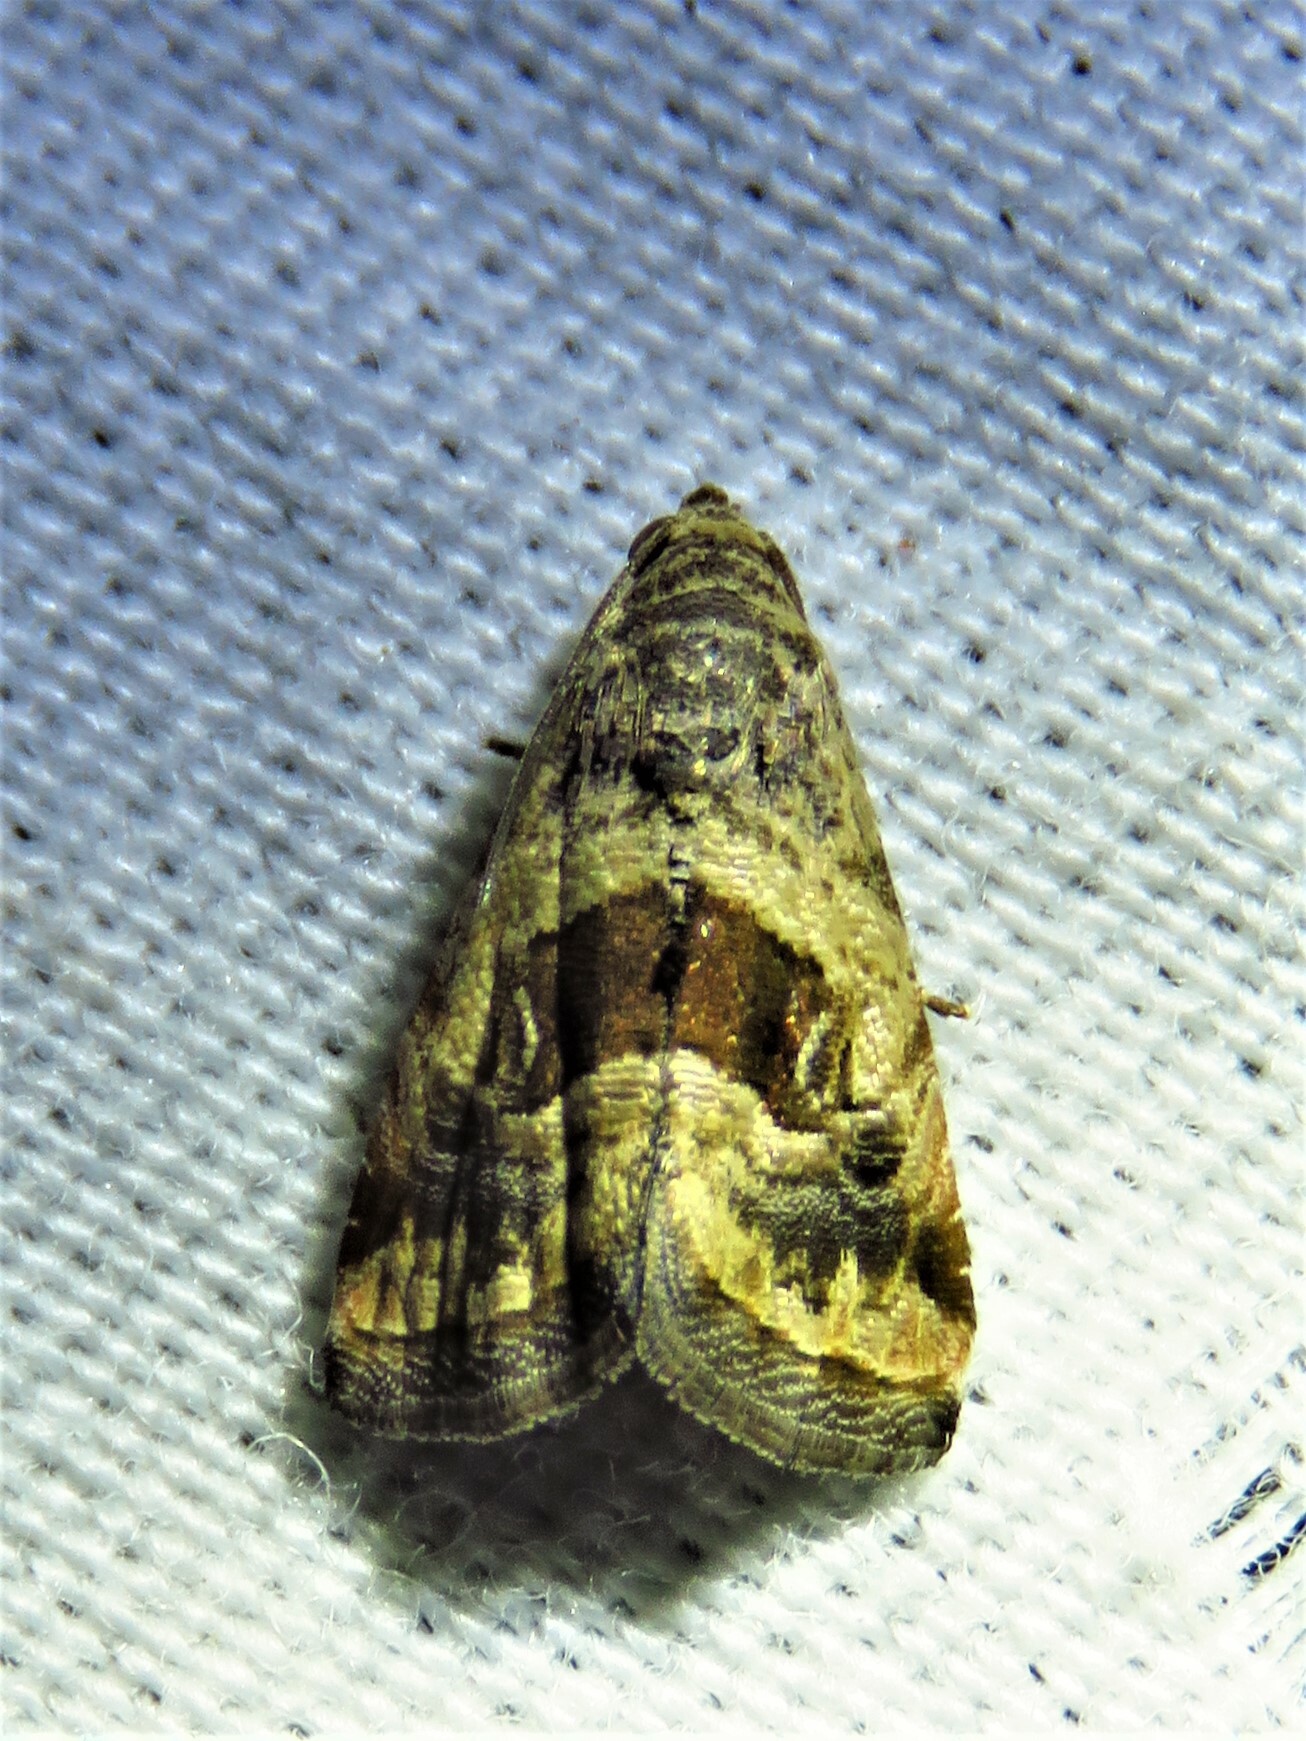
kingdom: Animalia
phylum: Arthropoda
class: Insecta
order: Lepidoptera
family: Noctuidae
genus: Tripudia
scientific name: Tripudia quadrifera
